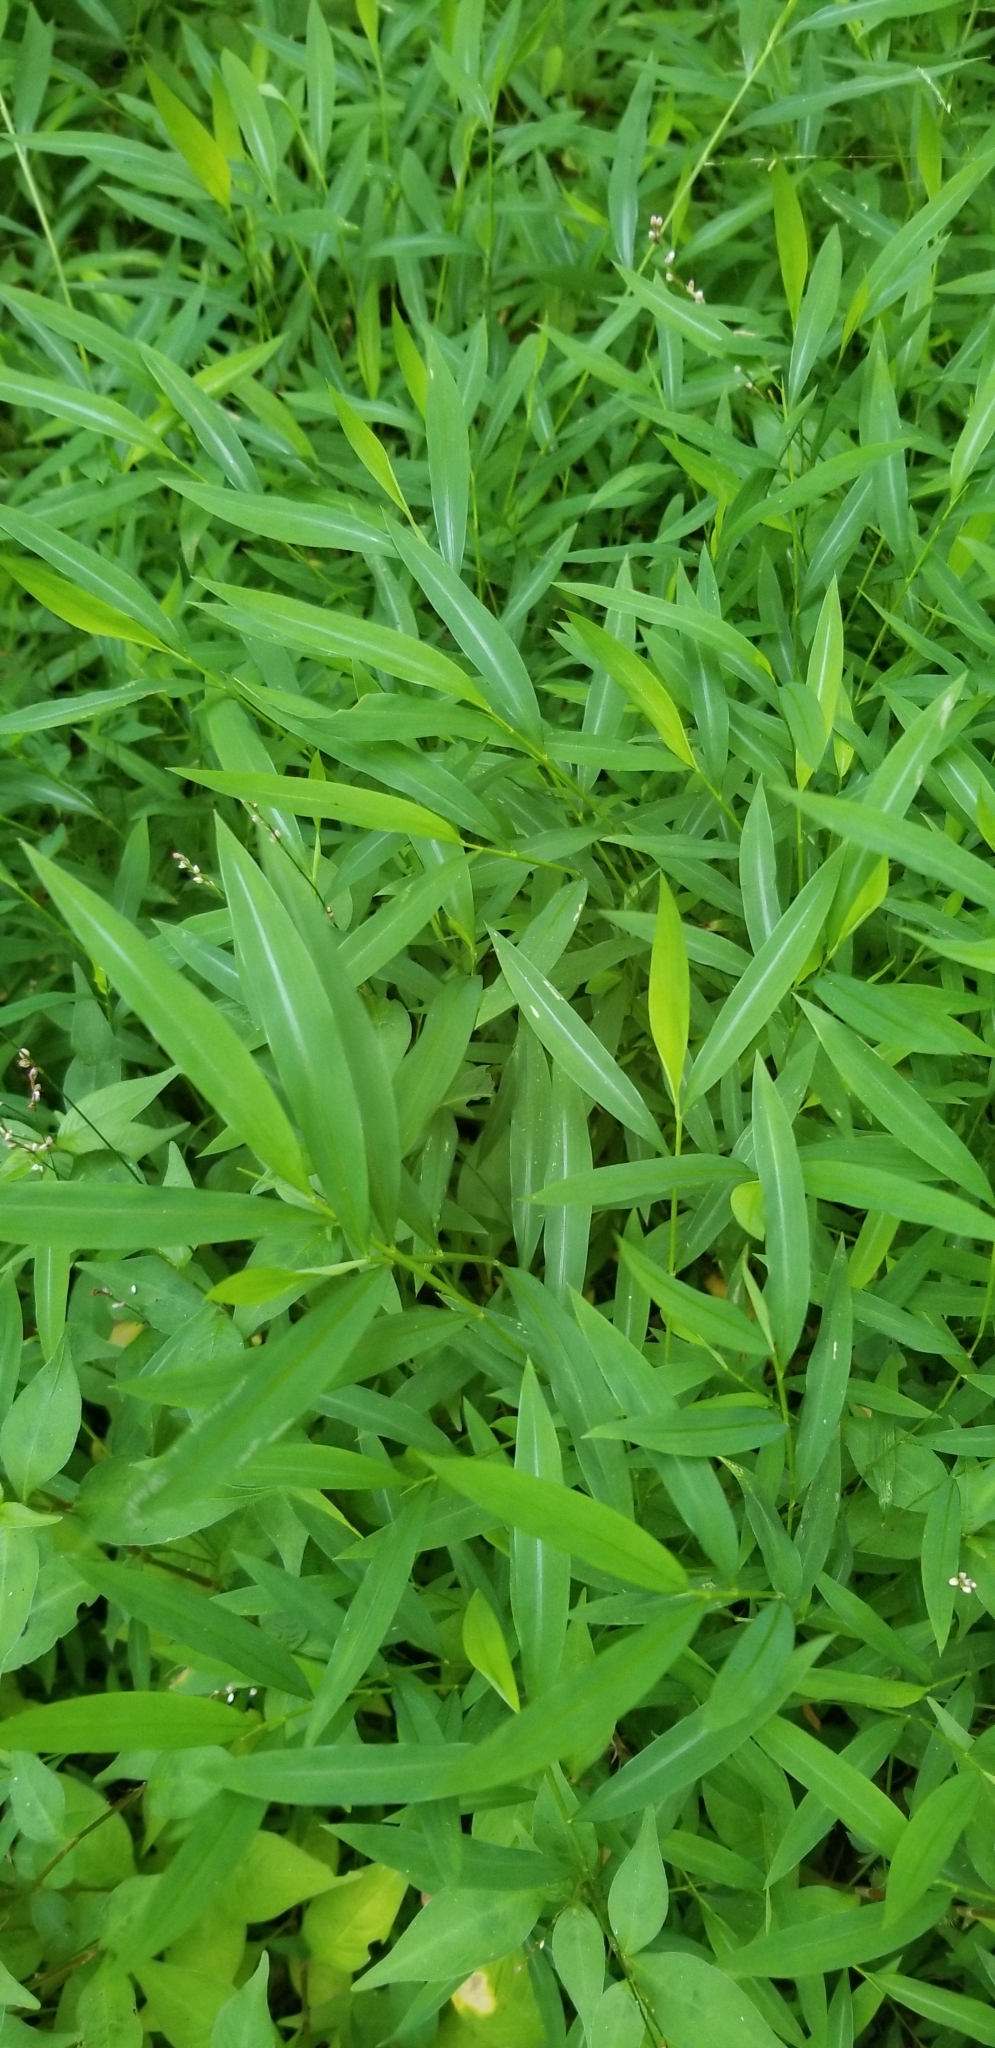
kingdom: Plantae
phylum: Tracheophyta
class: Liliopsida
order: Poales
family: Poaceae
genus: Microstegium
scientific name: Microstegium vimineum
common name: Japanese stiltgrass
